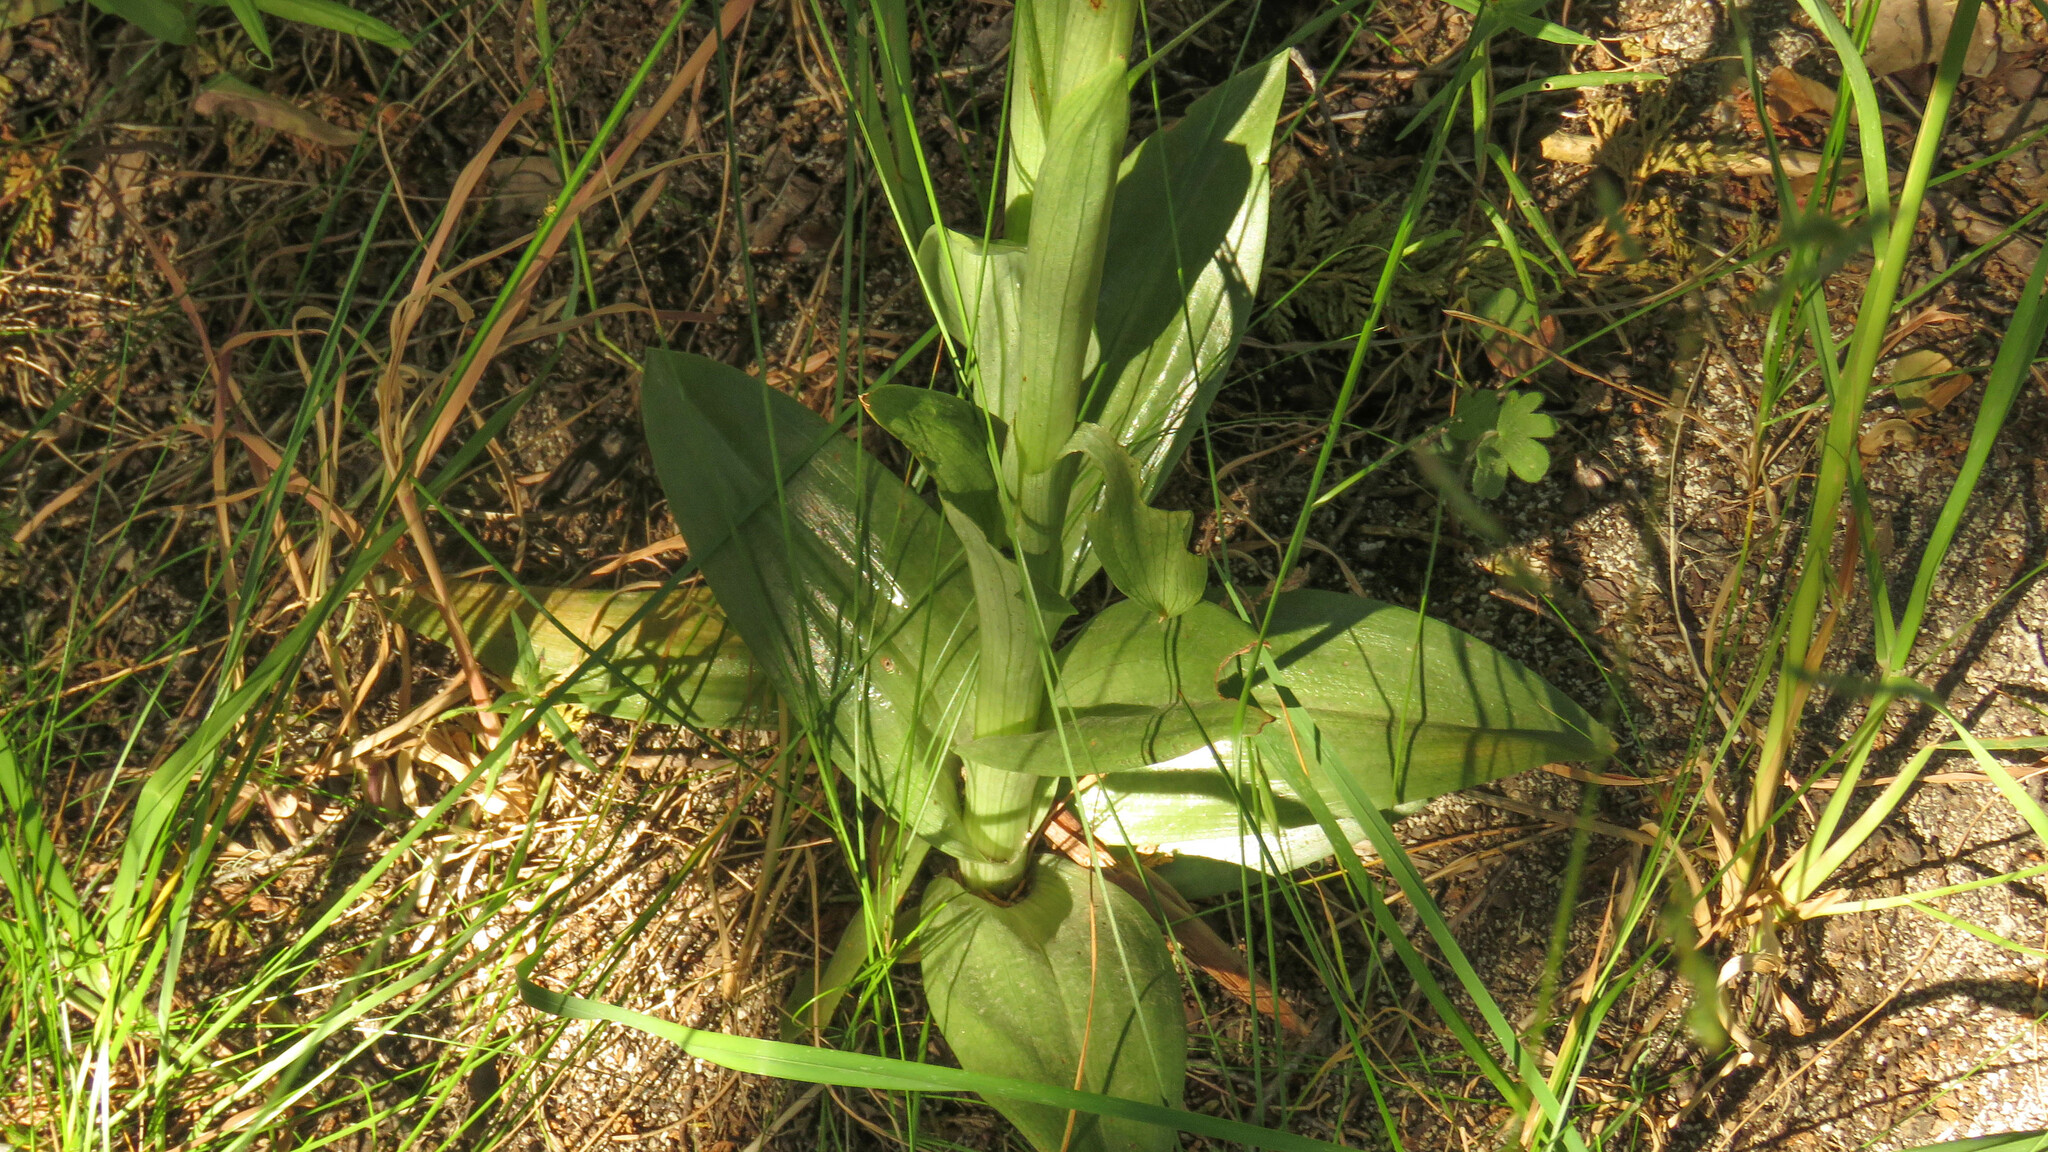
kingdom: Plantae
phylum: Tracheophyta
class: Liliopsida
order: Asparagales
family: Orchidaceae
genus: Gavilea
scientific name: Gavilea odoratissima
